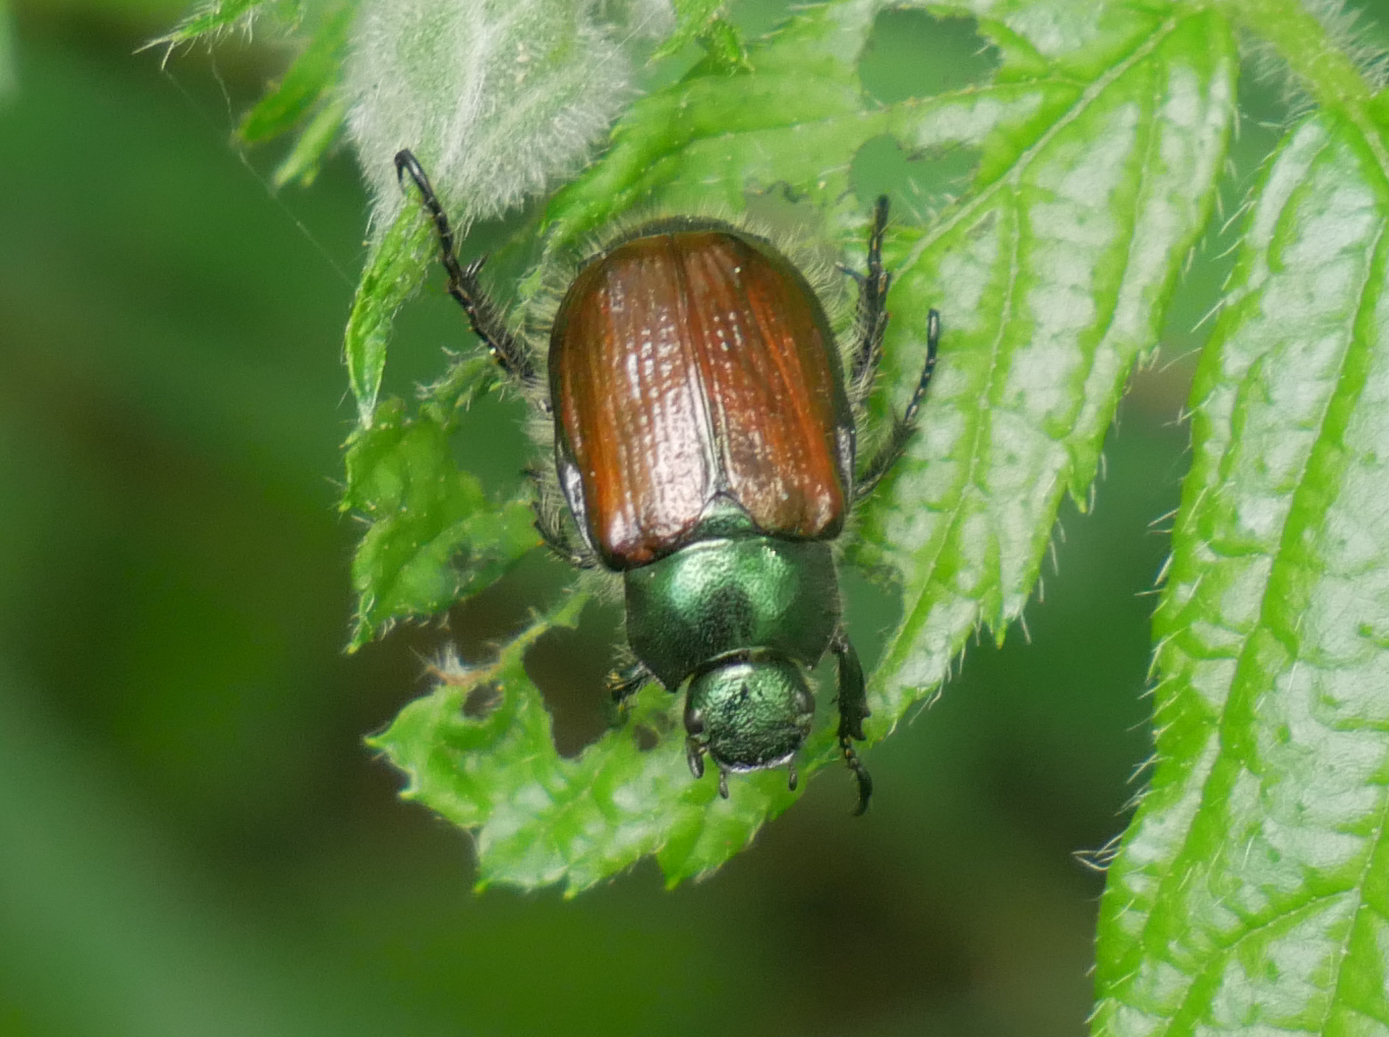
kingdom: Animalia
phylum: Arthropoda
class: Insecta
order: Coleoptera
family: Scarabaeidae
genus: Phyllopertha
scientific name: Phyllopertha horticola
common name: Garden chafer
